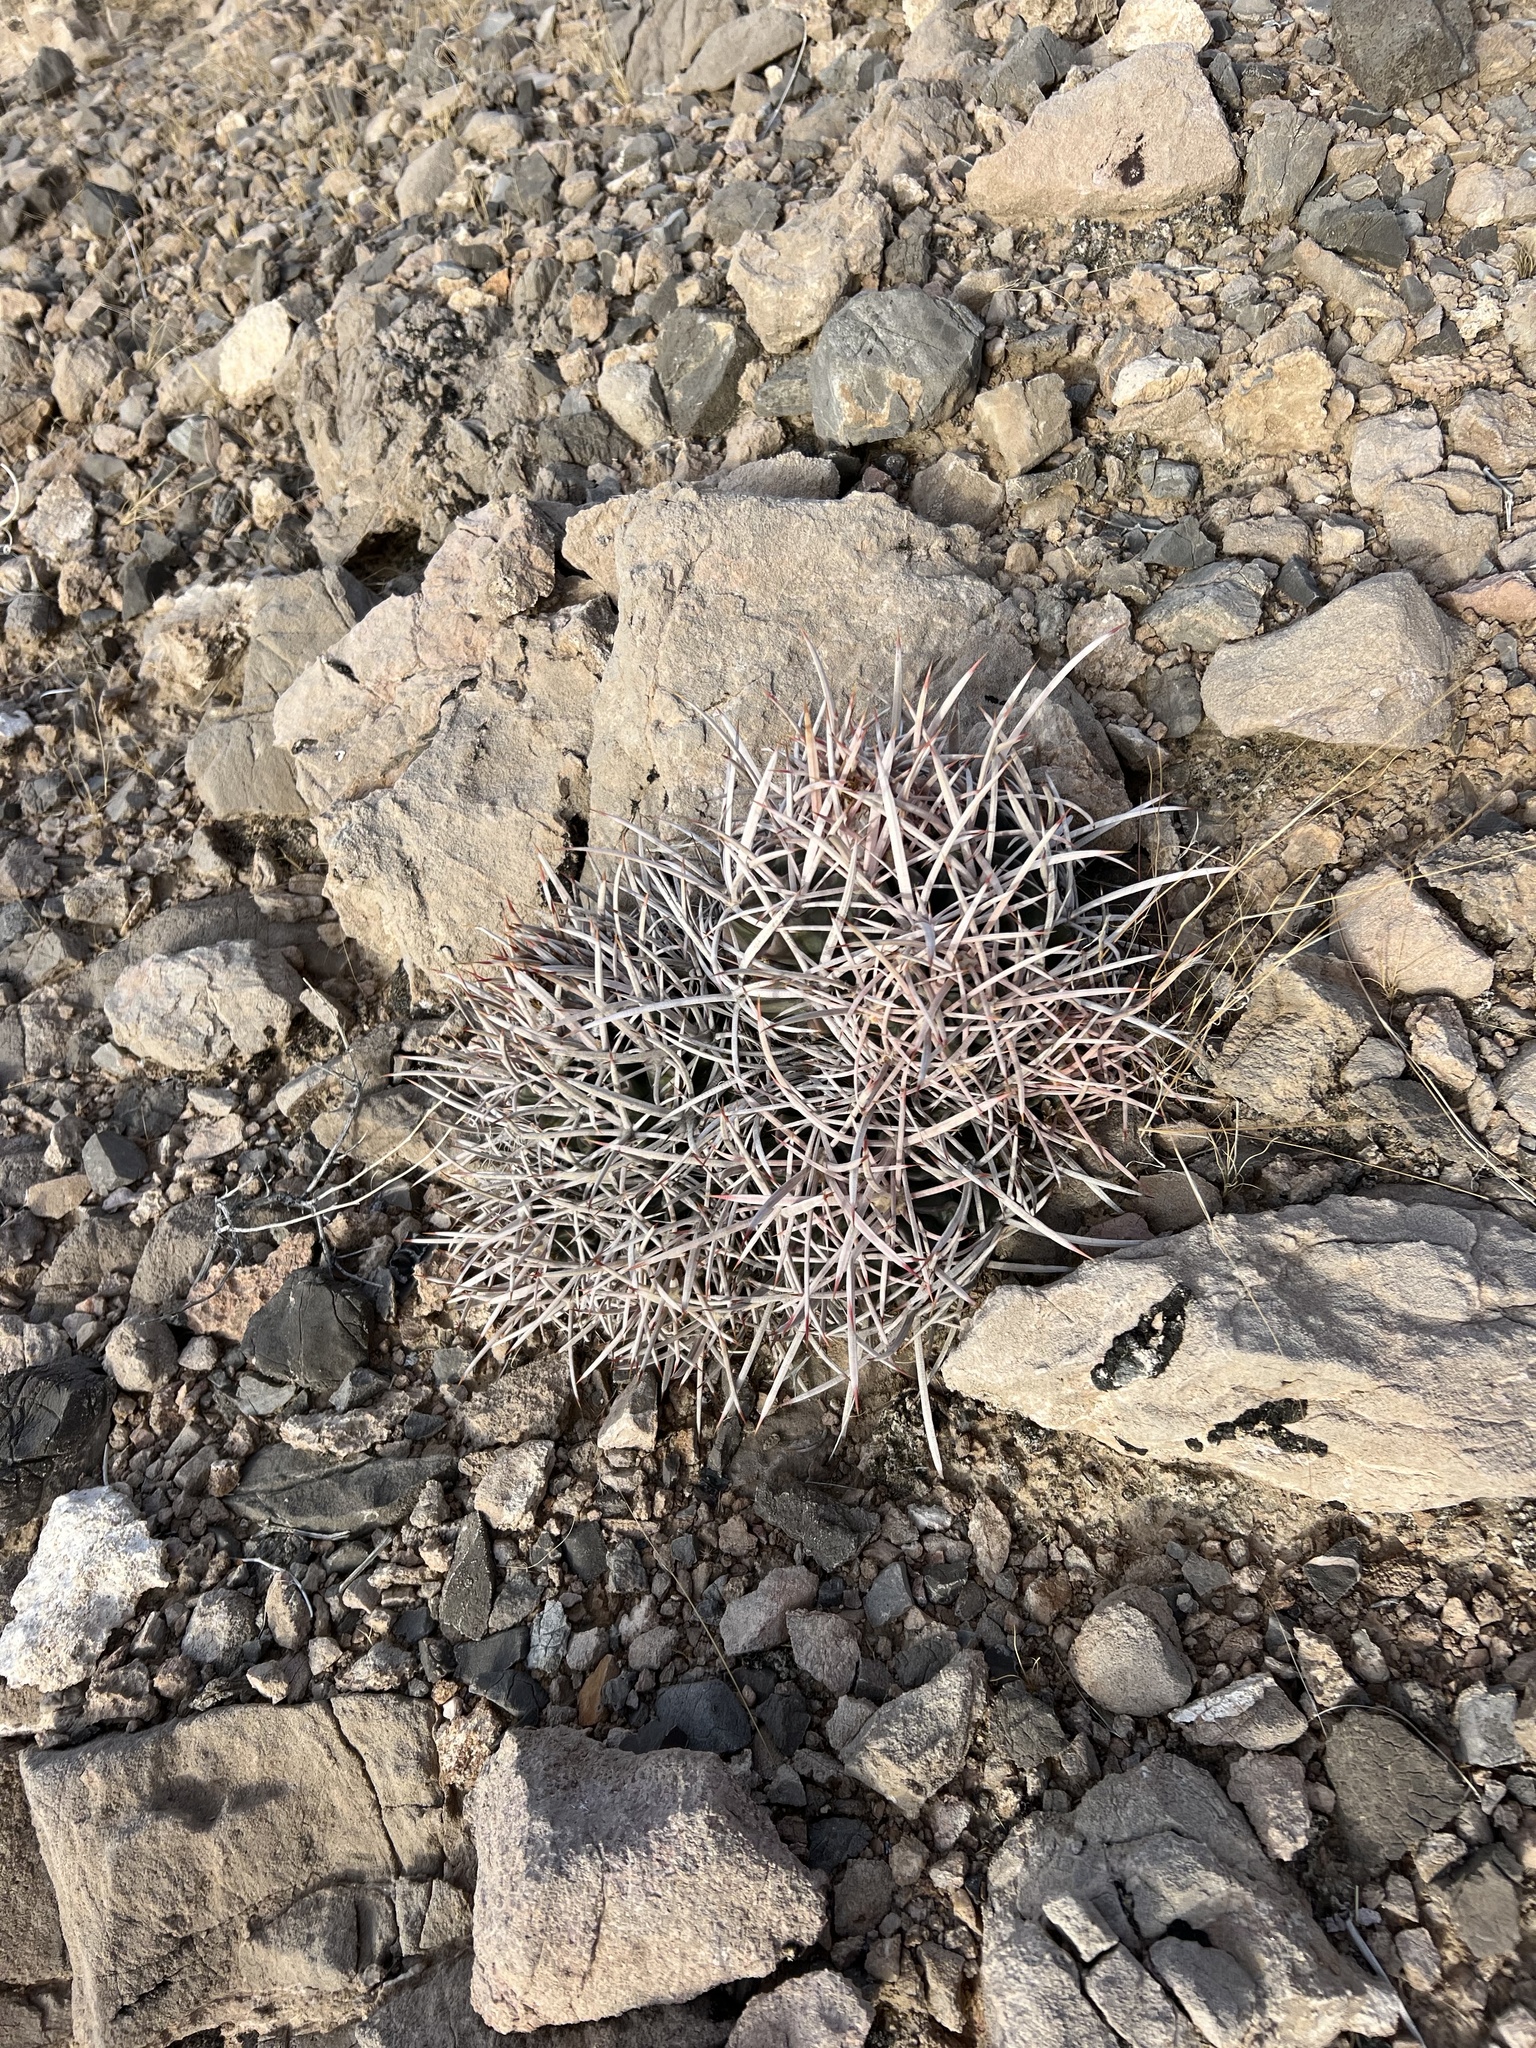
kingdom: Plantae
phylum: Tracheophyta
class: Magnoliopsida
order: Caryophyllales
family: Cactaceae
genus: Echinocactus
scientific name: Echinocactus polycephalus
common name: Cottontop cactus
